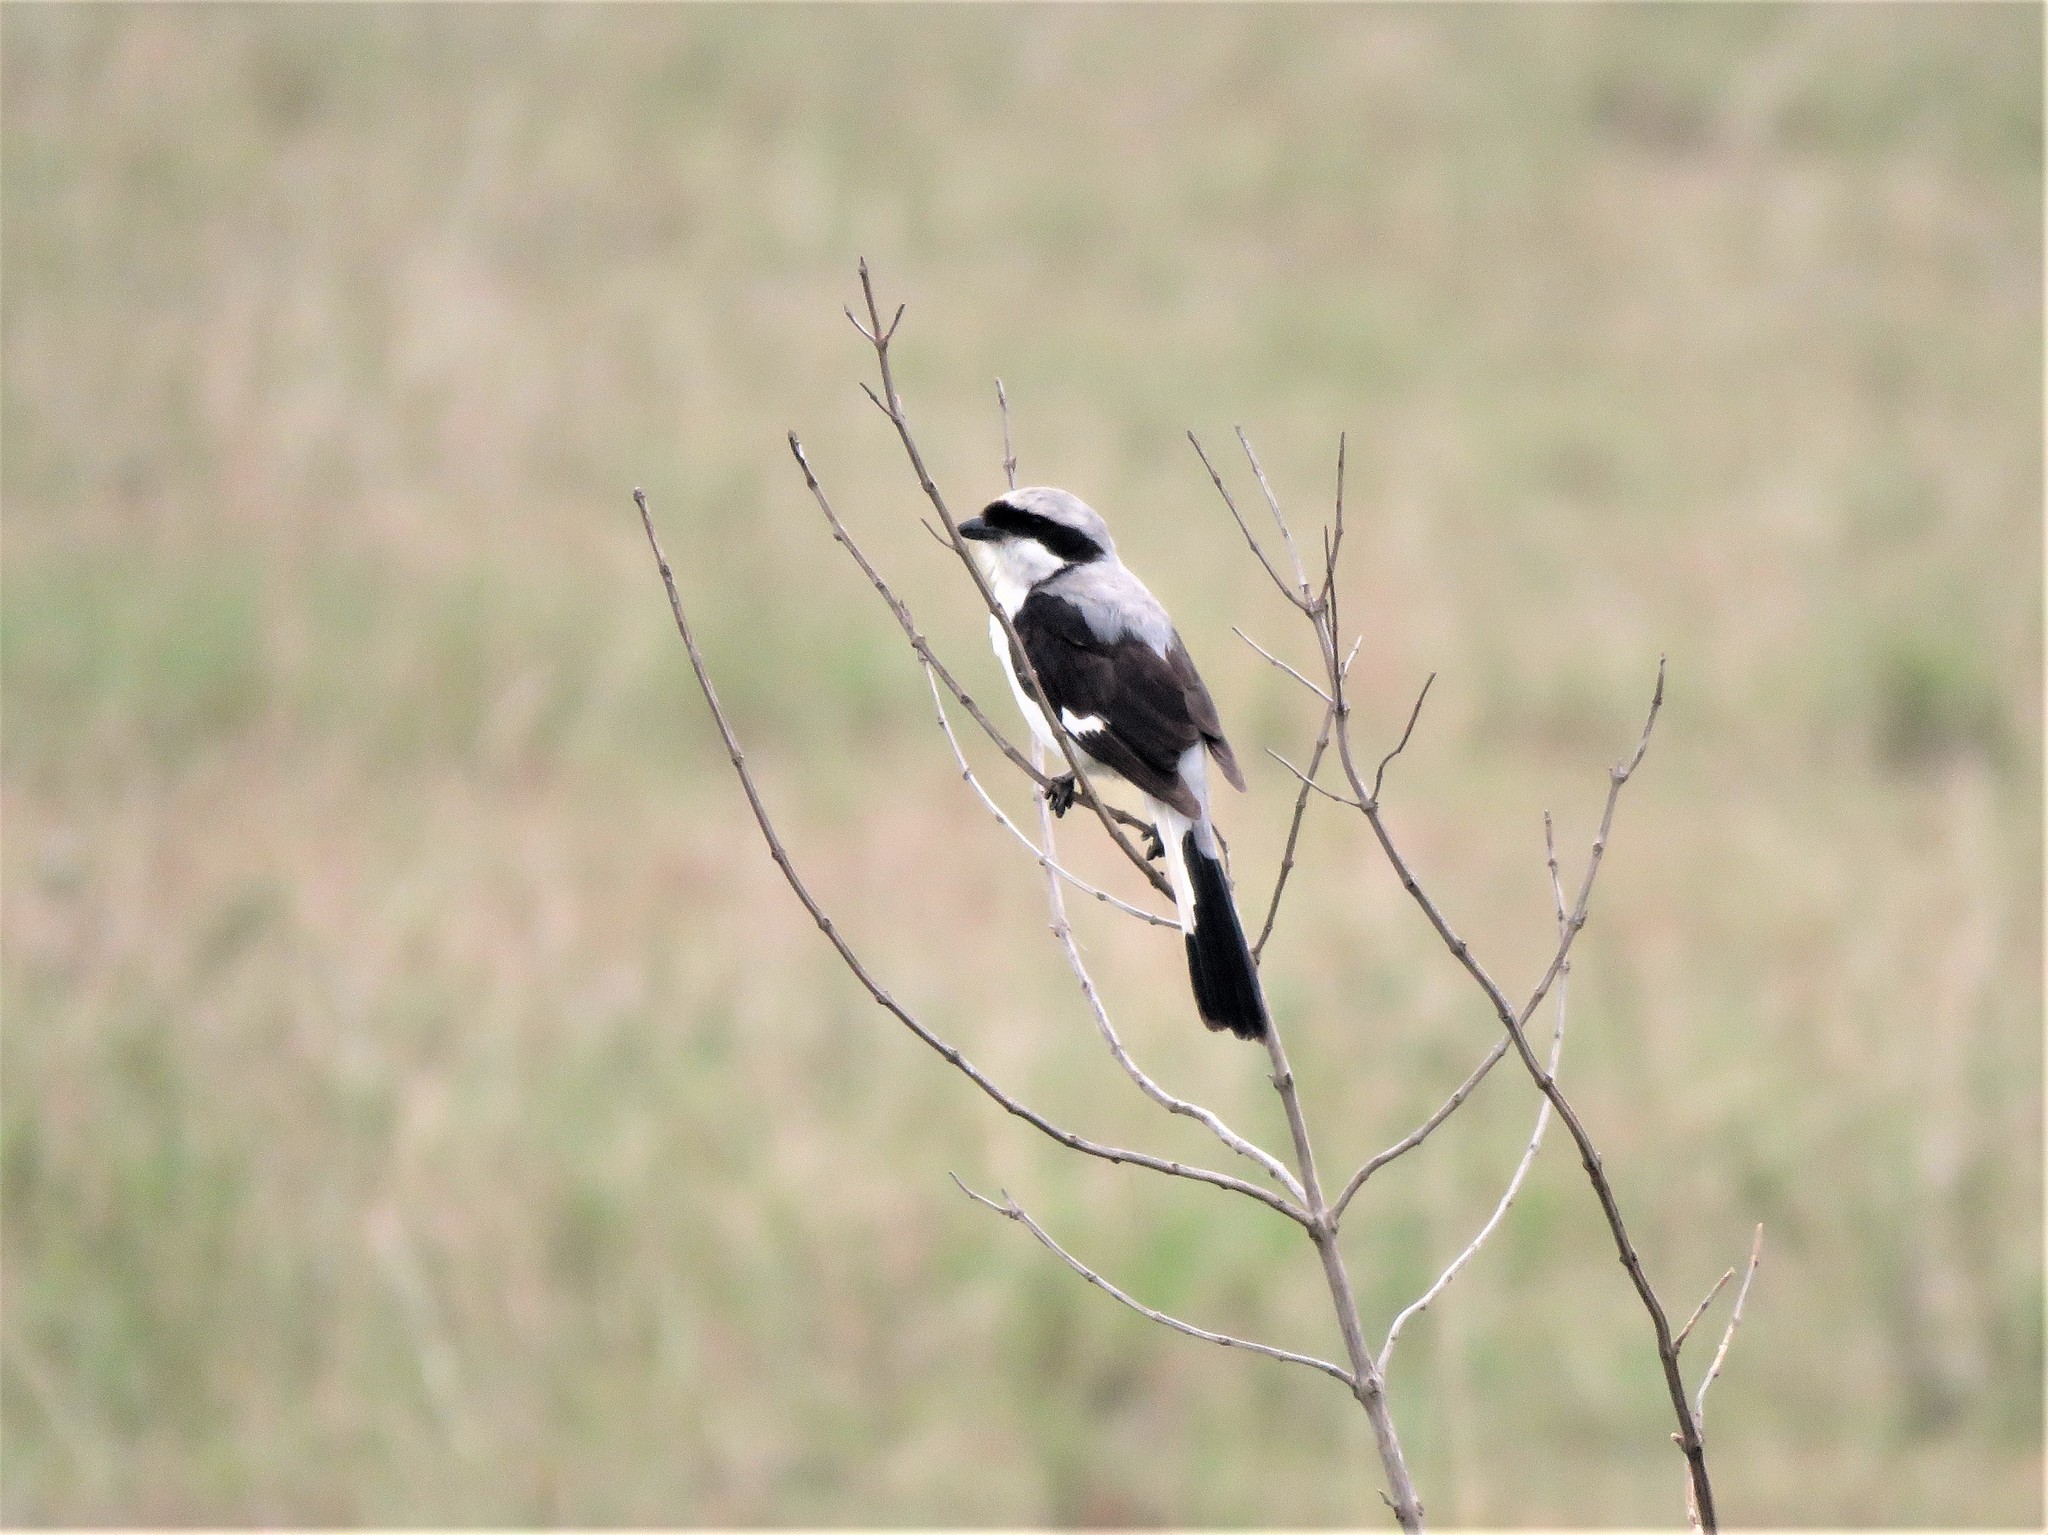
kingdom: Animalia
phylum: Chordata
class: Aves
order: Passeriformes
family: Laniidae
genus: Lanius
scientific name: Lanius excubitoroides
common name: Grey-backed fiscal
